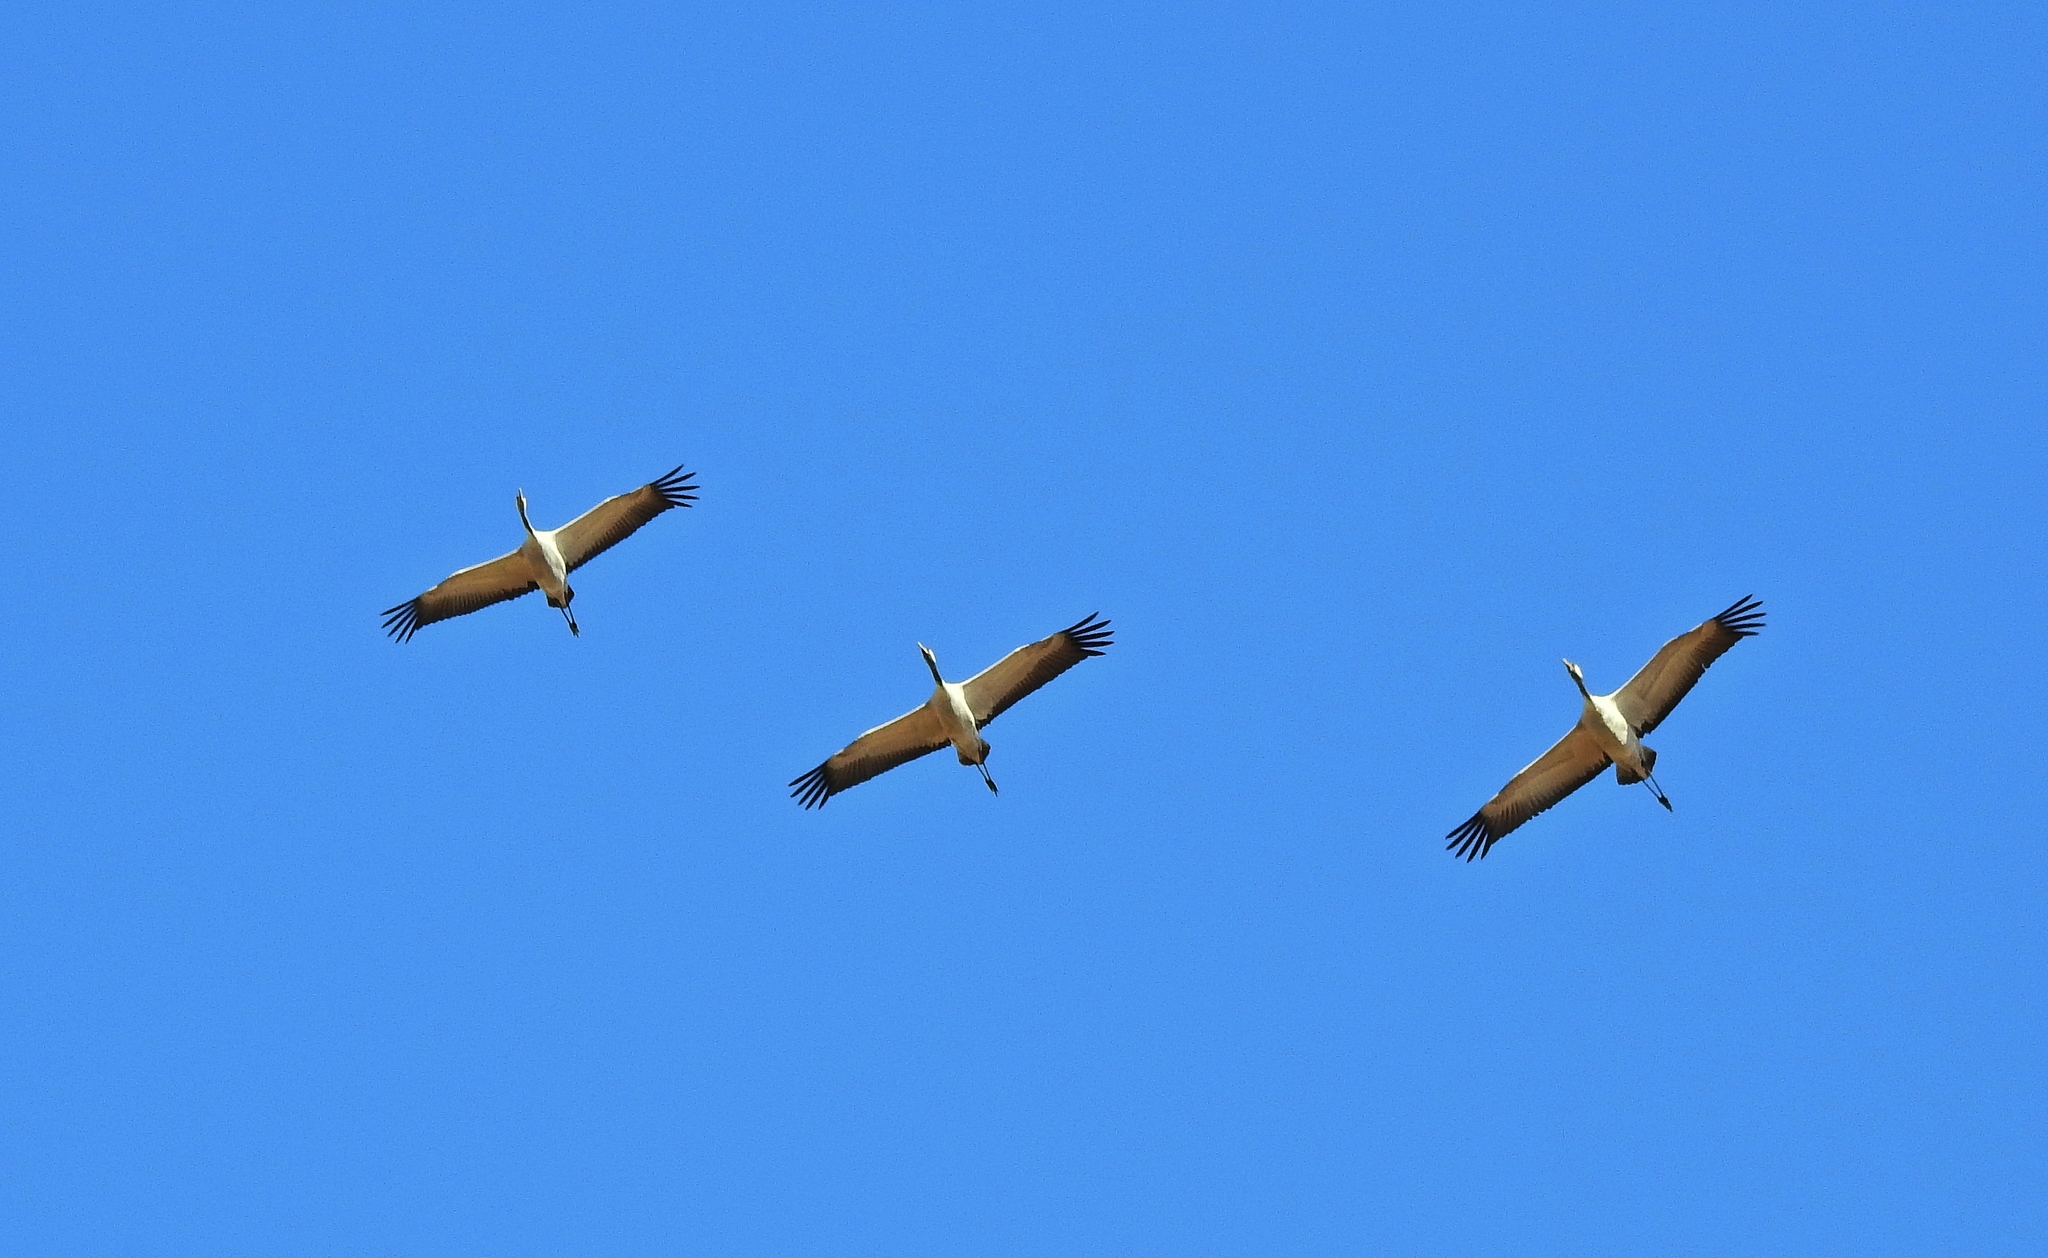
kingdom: Animalia
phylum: Chordata
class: Aves
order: Gruiformes
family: Gruidae
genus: Grus
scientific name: Grus grus
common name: Common crane
